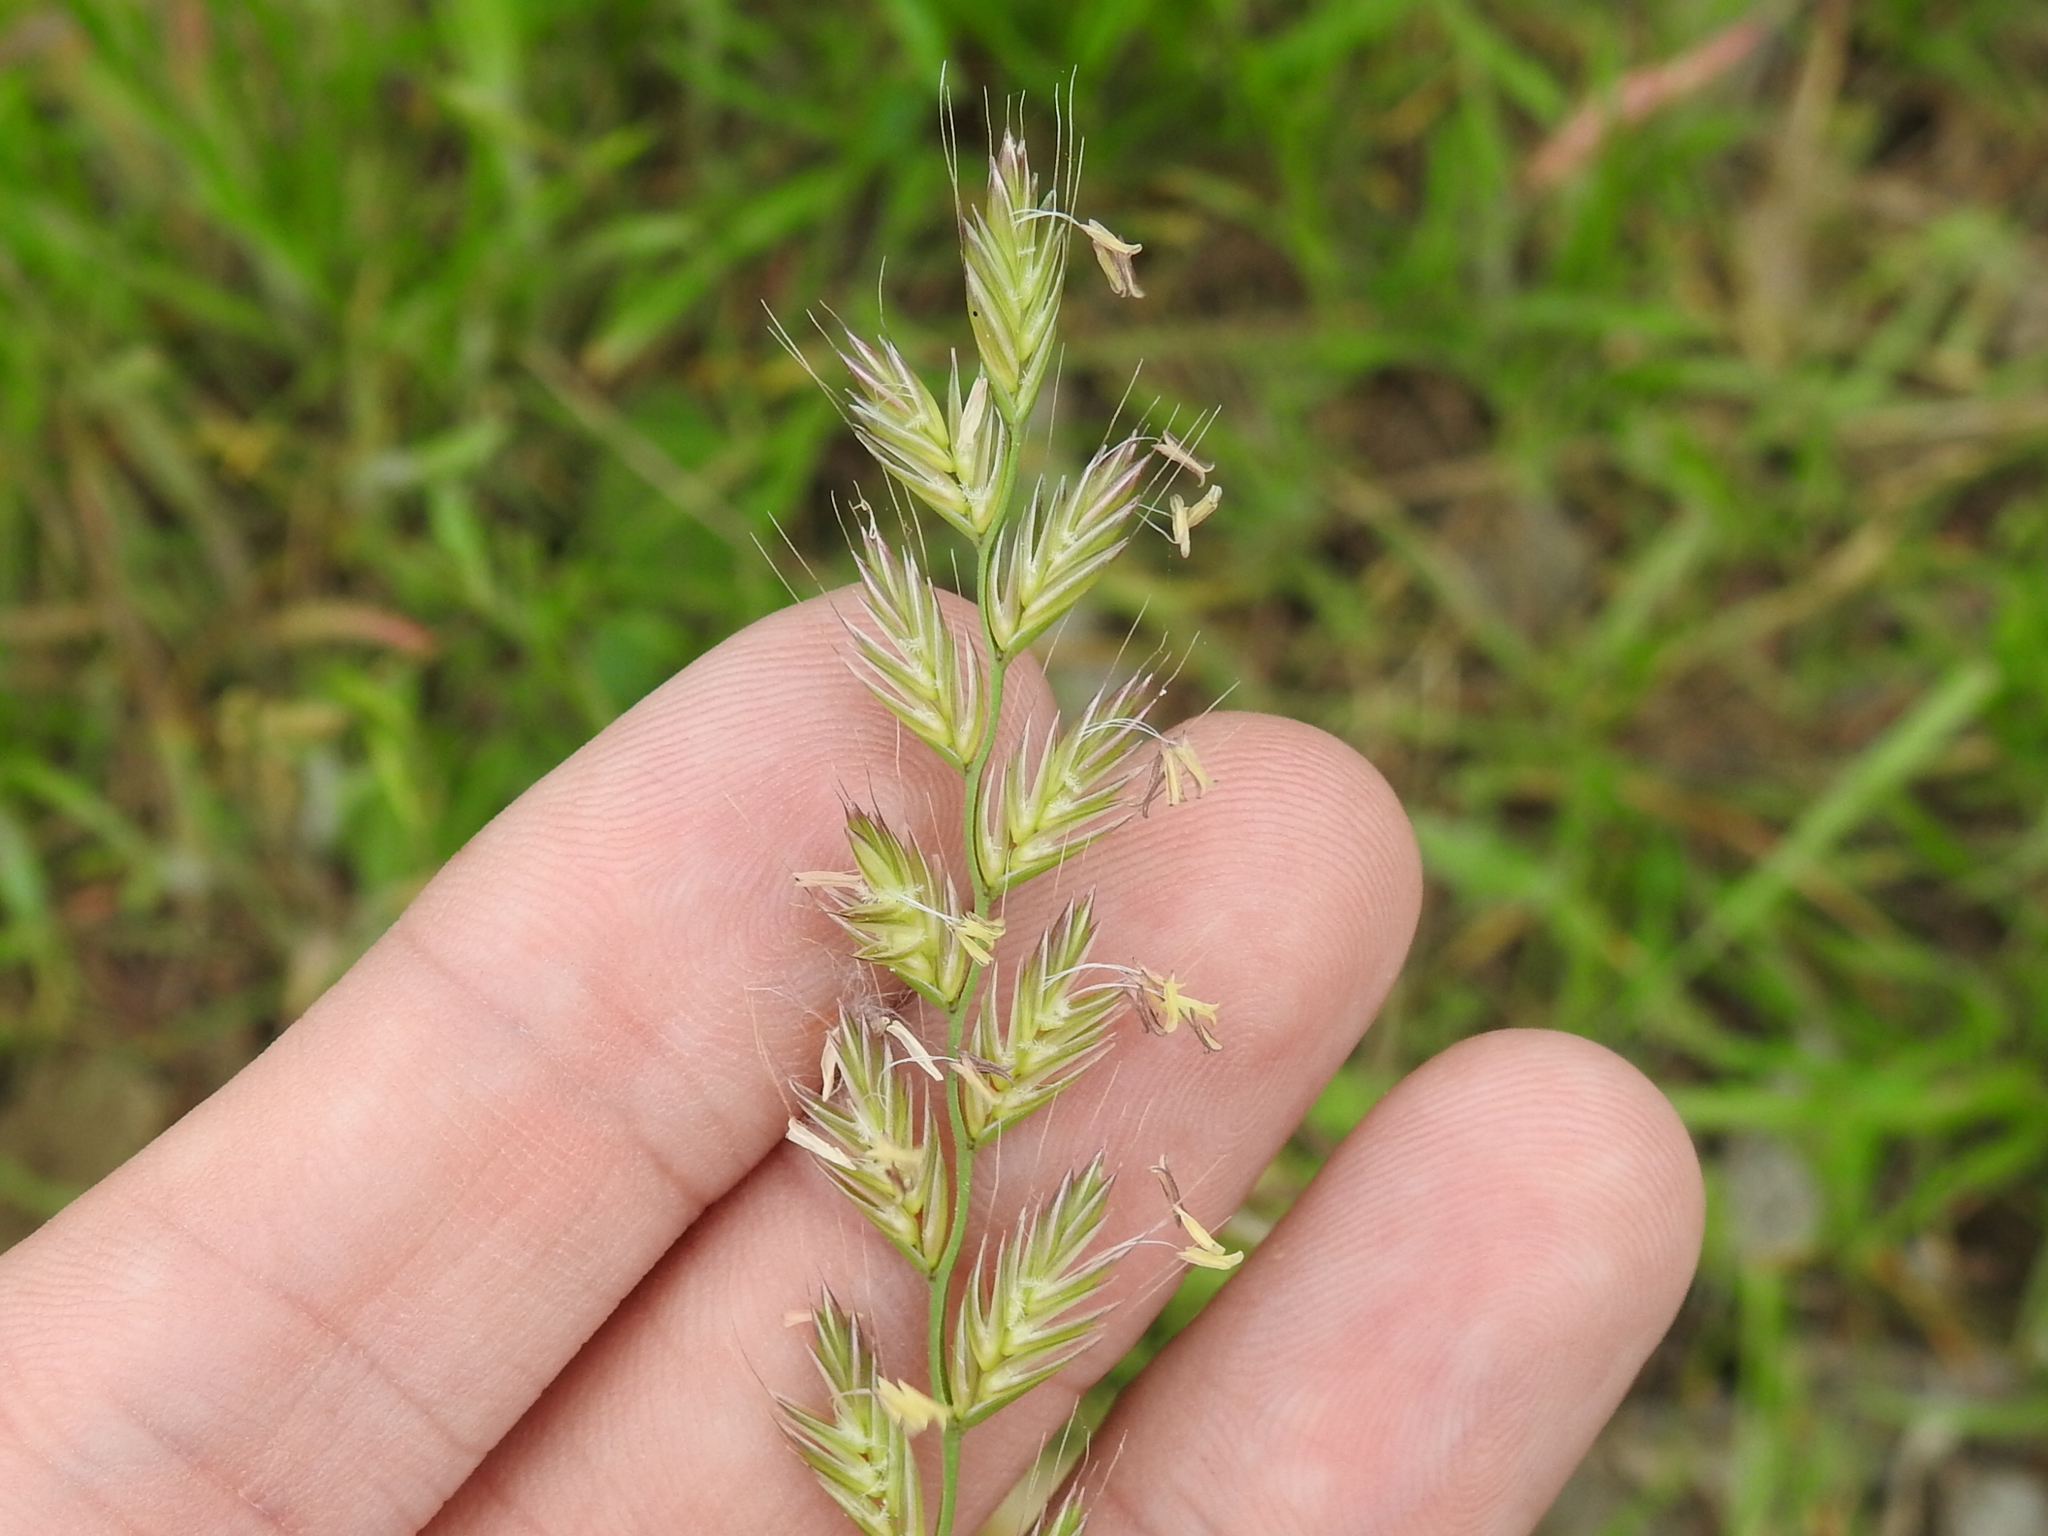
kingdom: Plantae
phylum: Tracheophyta
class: Liliopsida
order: Poales
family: Poaceae
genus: Lolium
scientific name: Lolium perenne
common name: Perennial ryegrass
